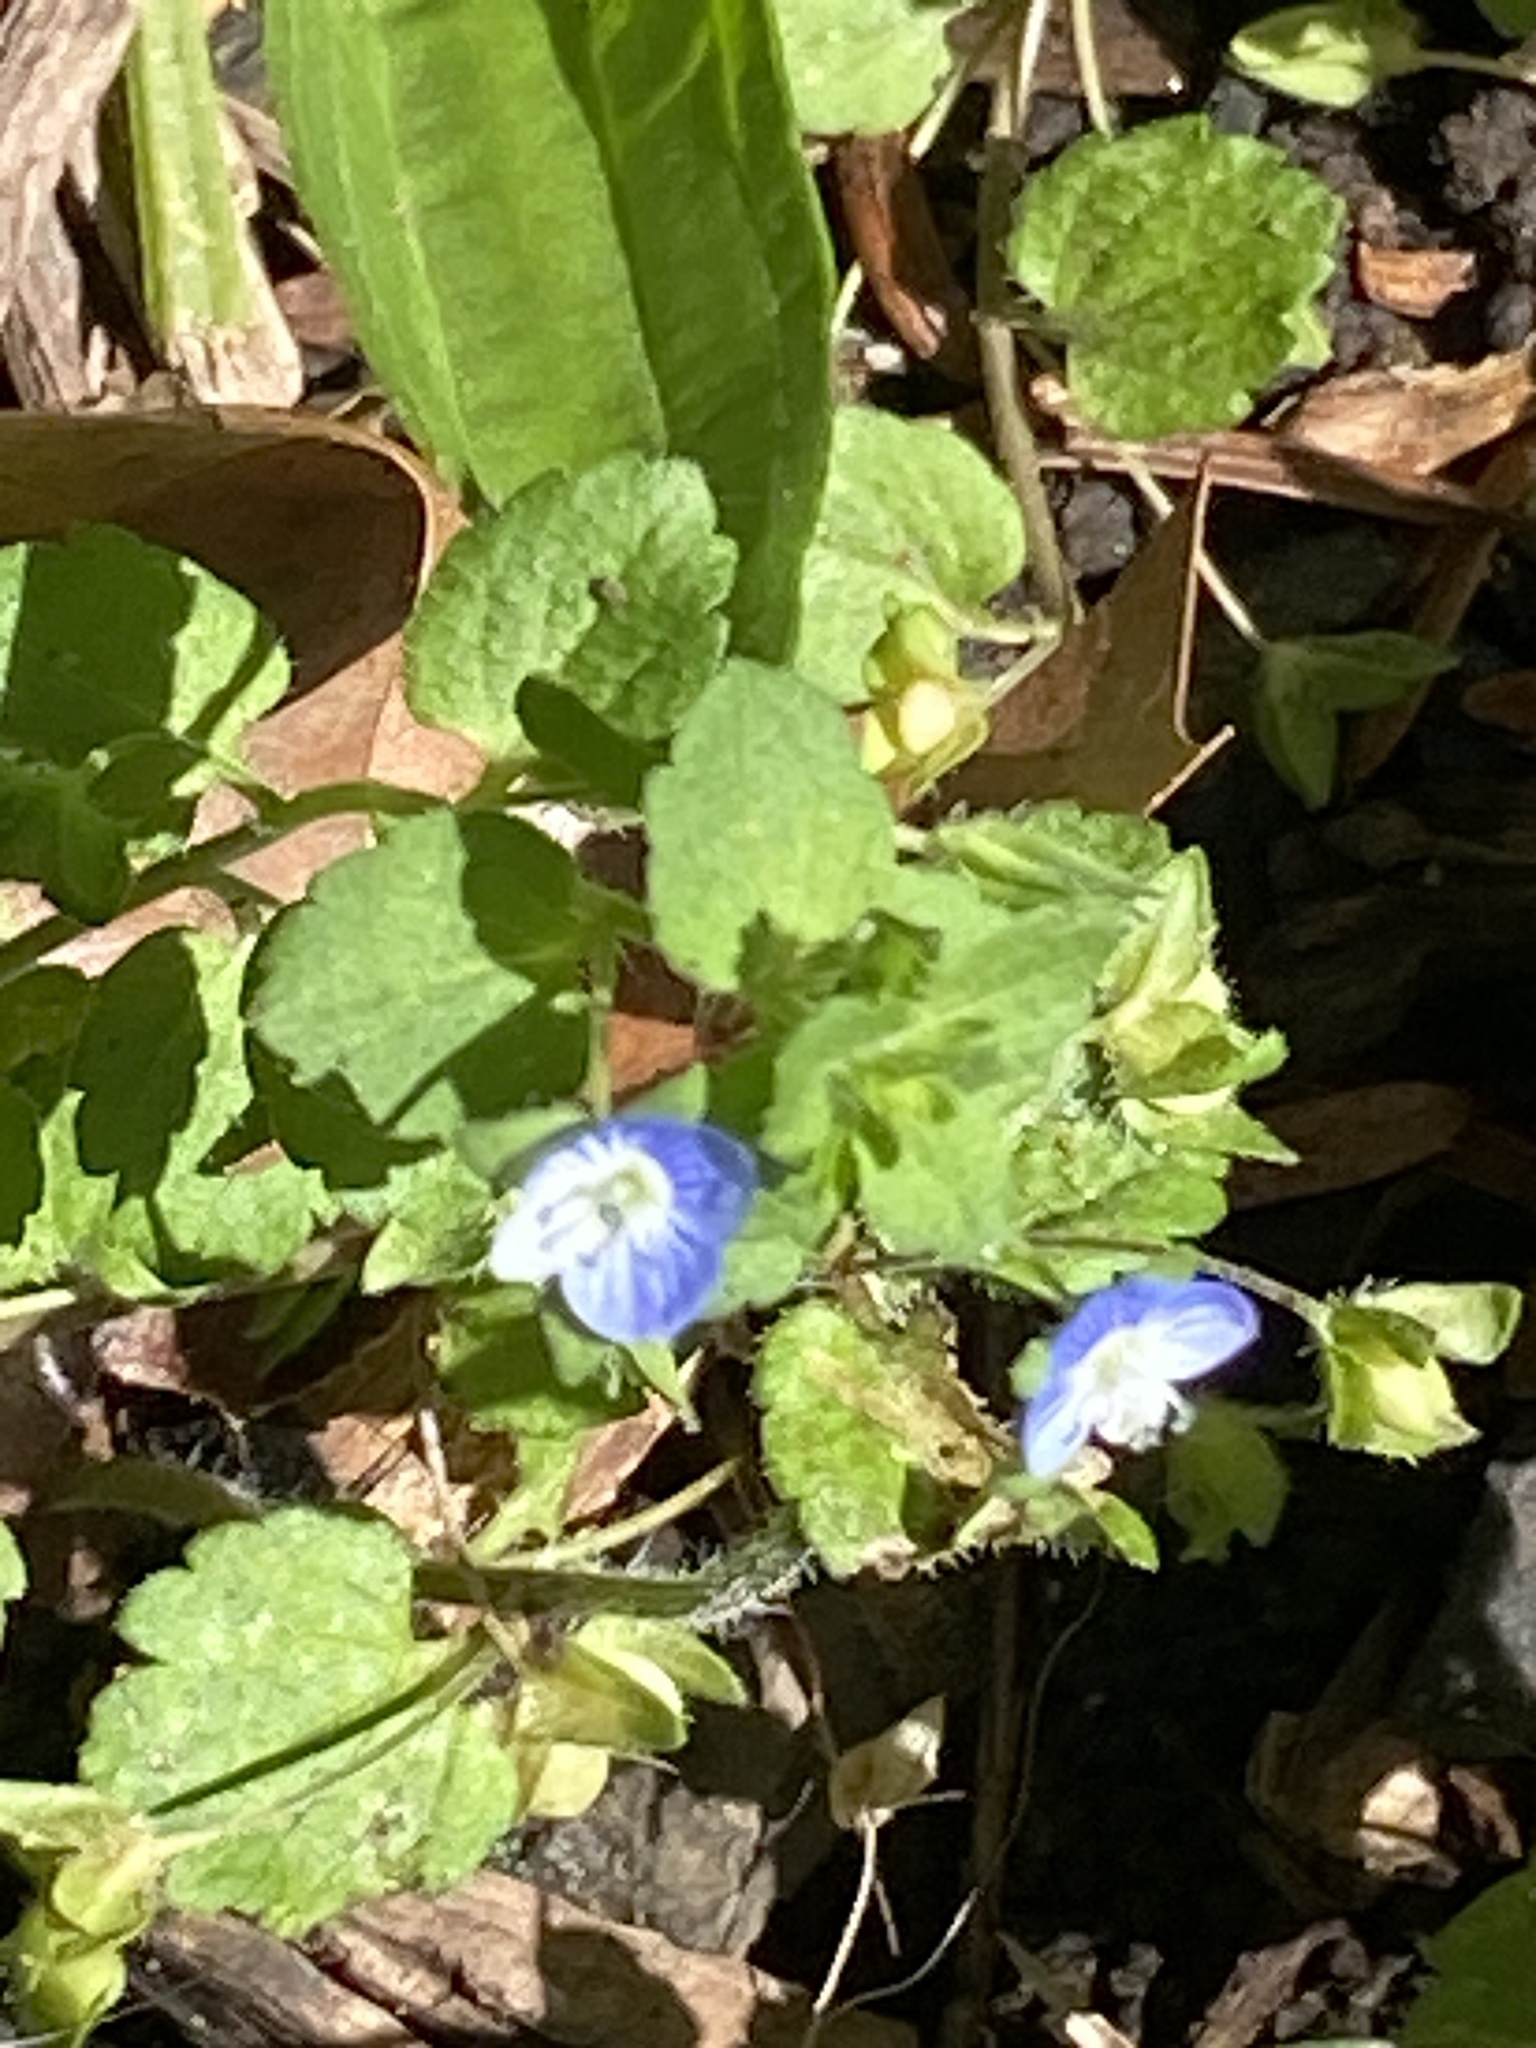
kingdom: Plantae
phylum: Tracheophyta
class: Magnoliopsida
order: Lamiales
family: Plantaginaceae
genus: Veronica
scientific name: Veronica persica
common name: Common field-speedwell
